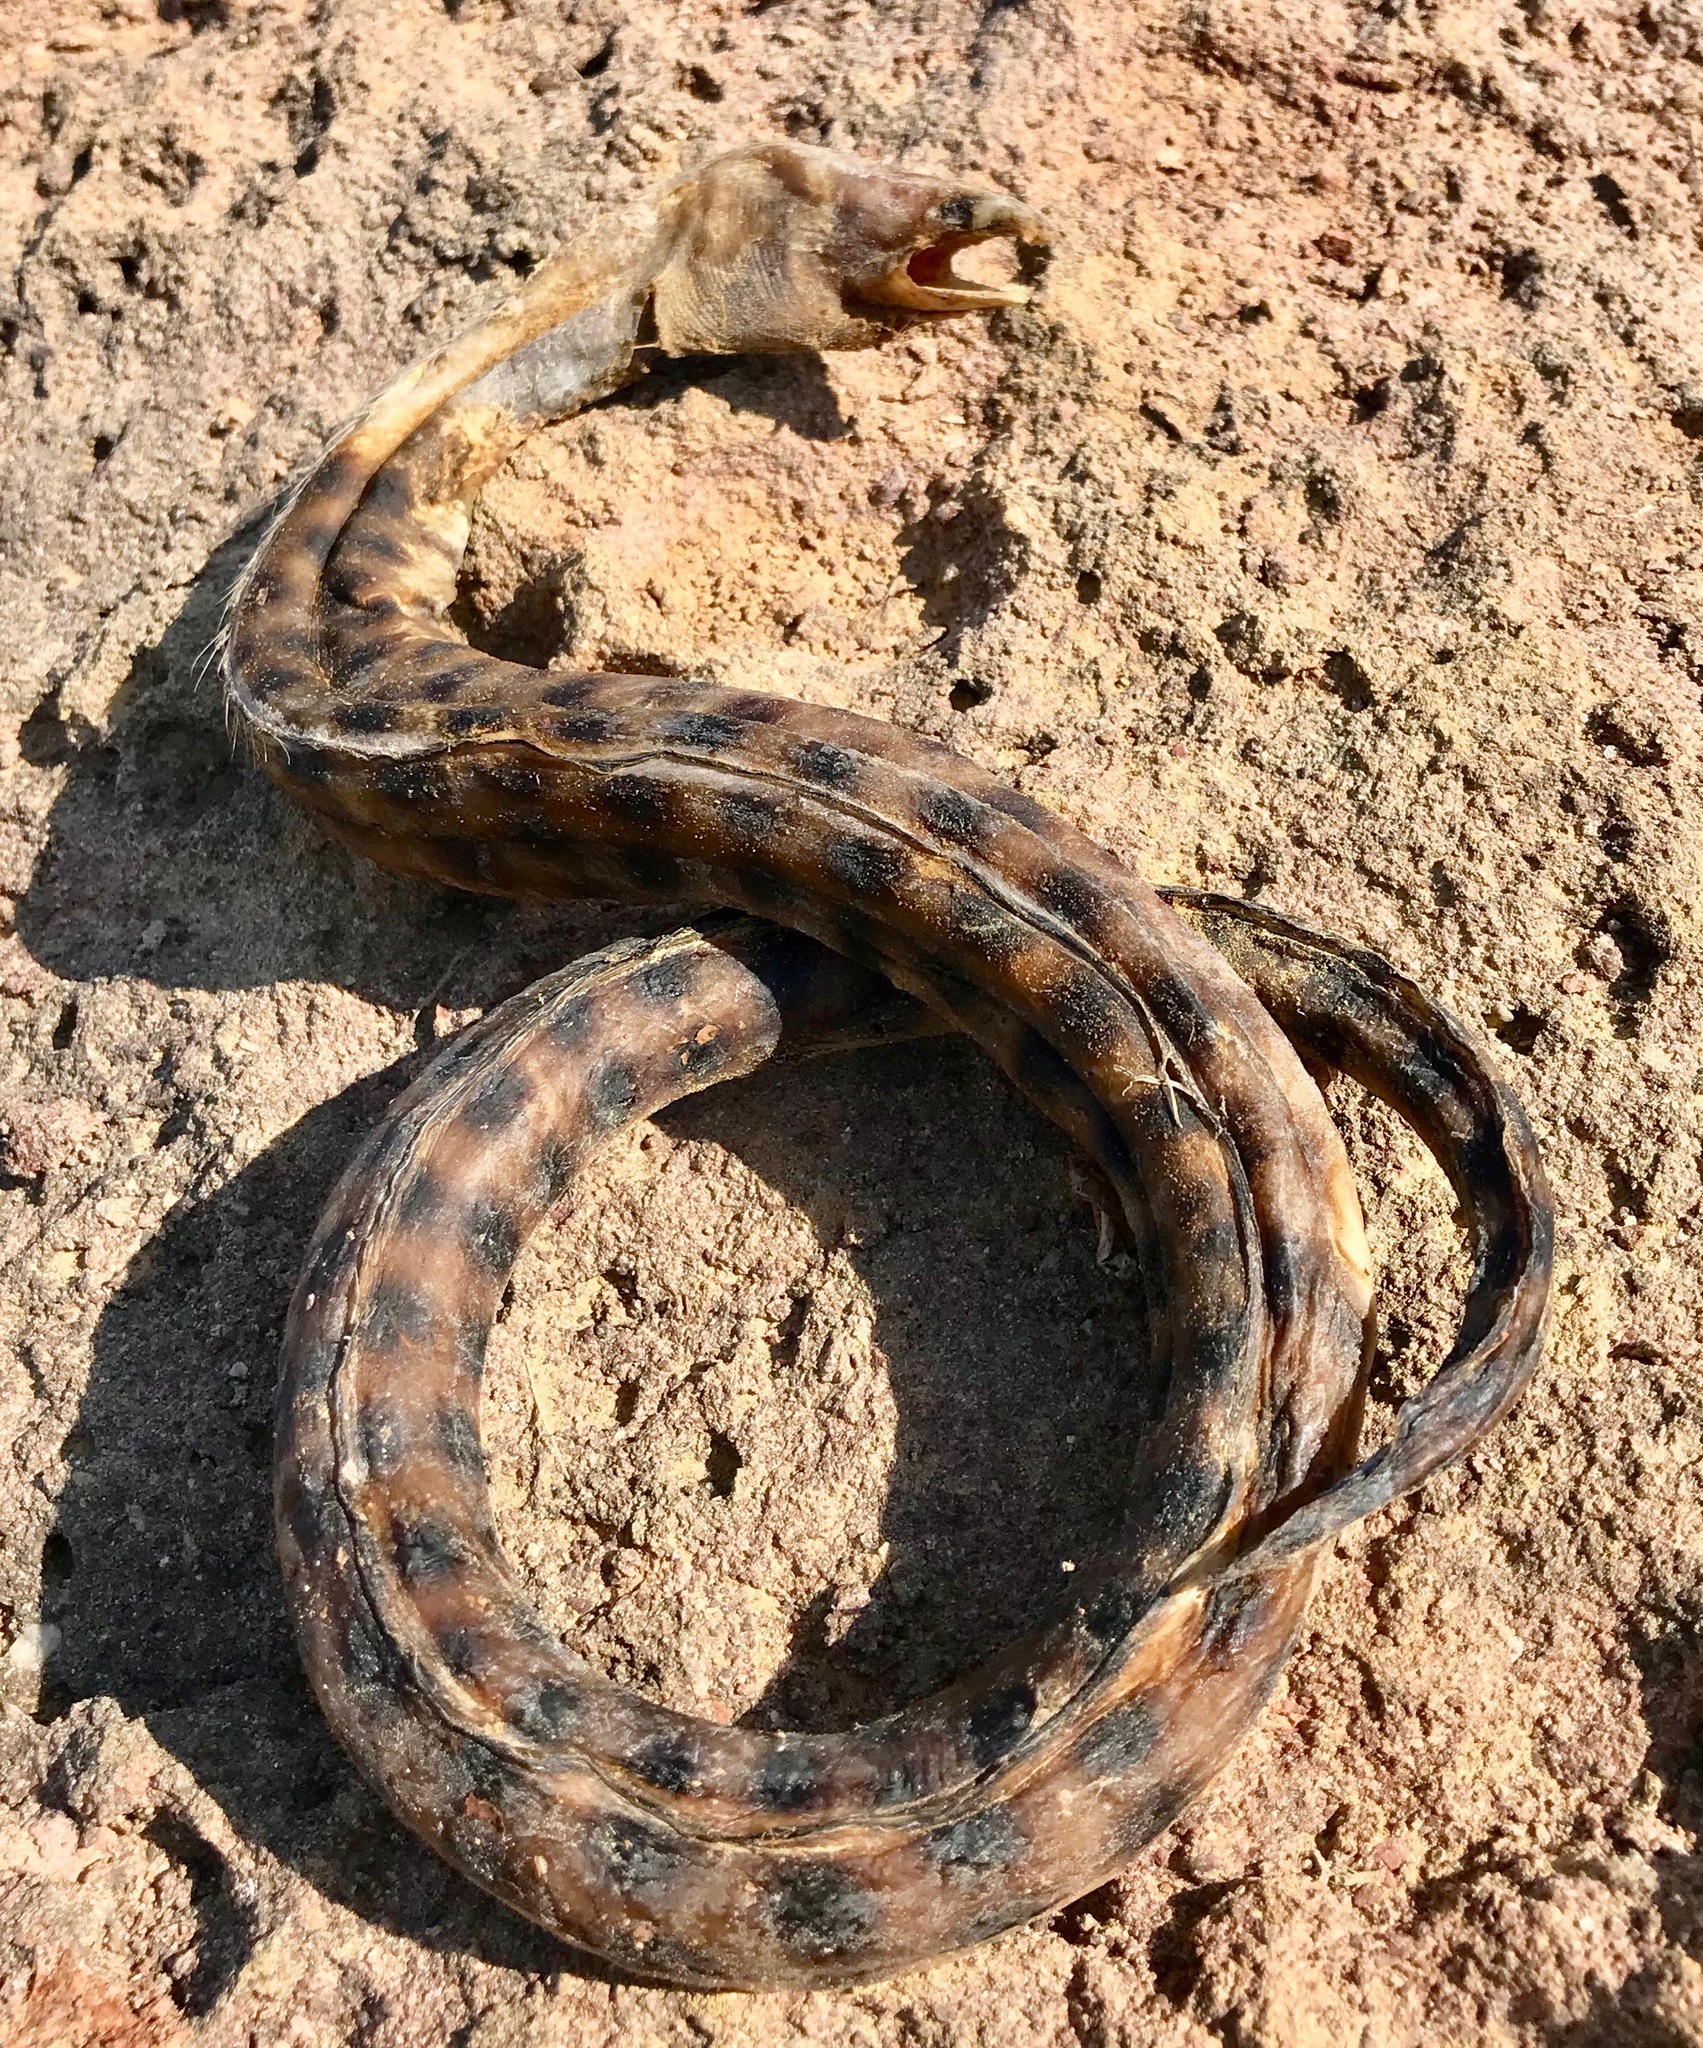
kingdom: Animalia
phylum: Chordata
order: Anguilliformes
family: Ophichthidae
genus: Myrichthys
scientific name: Myrichthys xysturus
